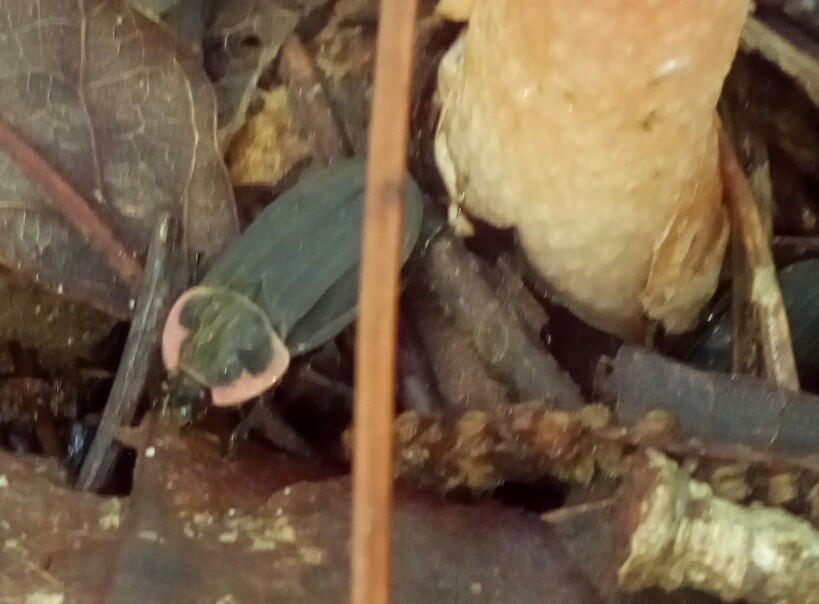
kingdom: Animalia
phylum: Arthropoda
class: Insecta
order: Coleoptera
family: Staphylinidae
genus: Oiceoptoma
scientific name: Oiceoptoma noveboracense
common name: Margined carrion beetle
